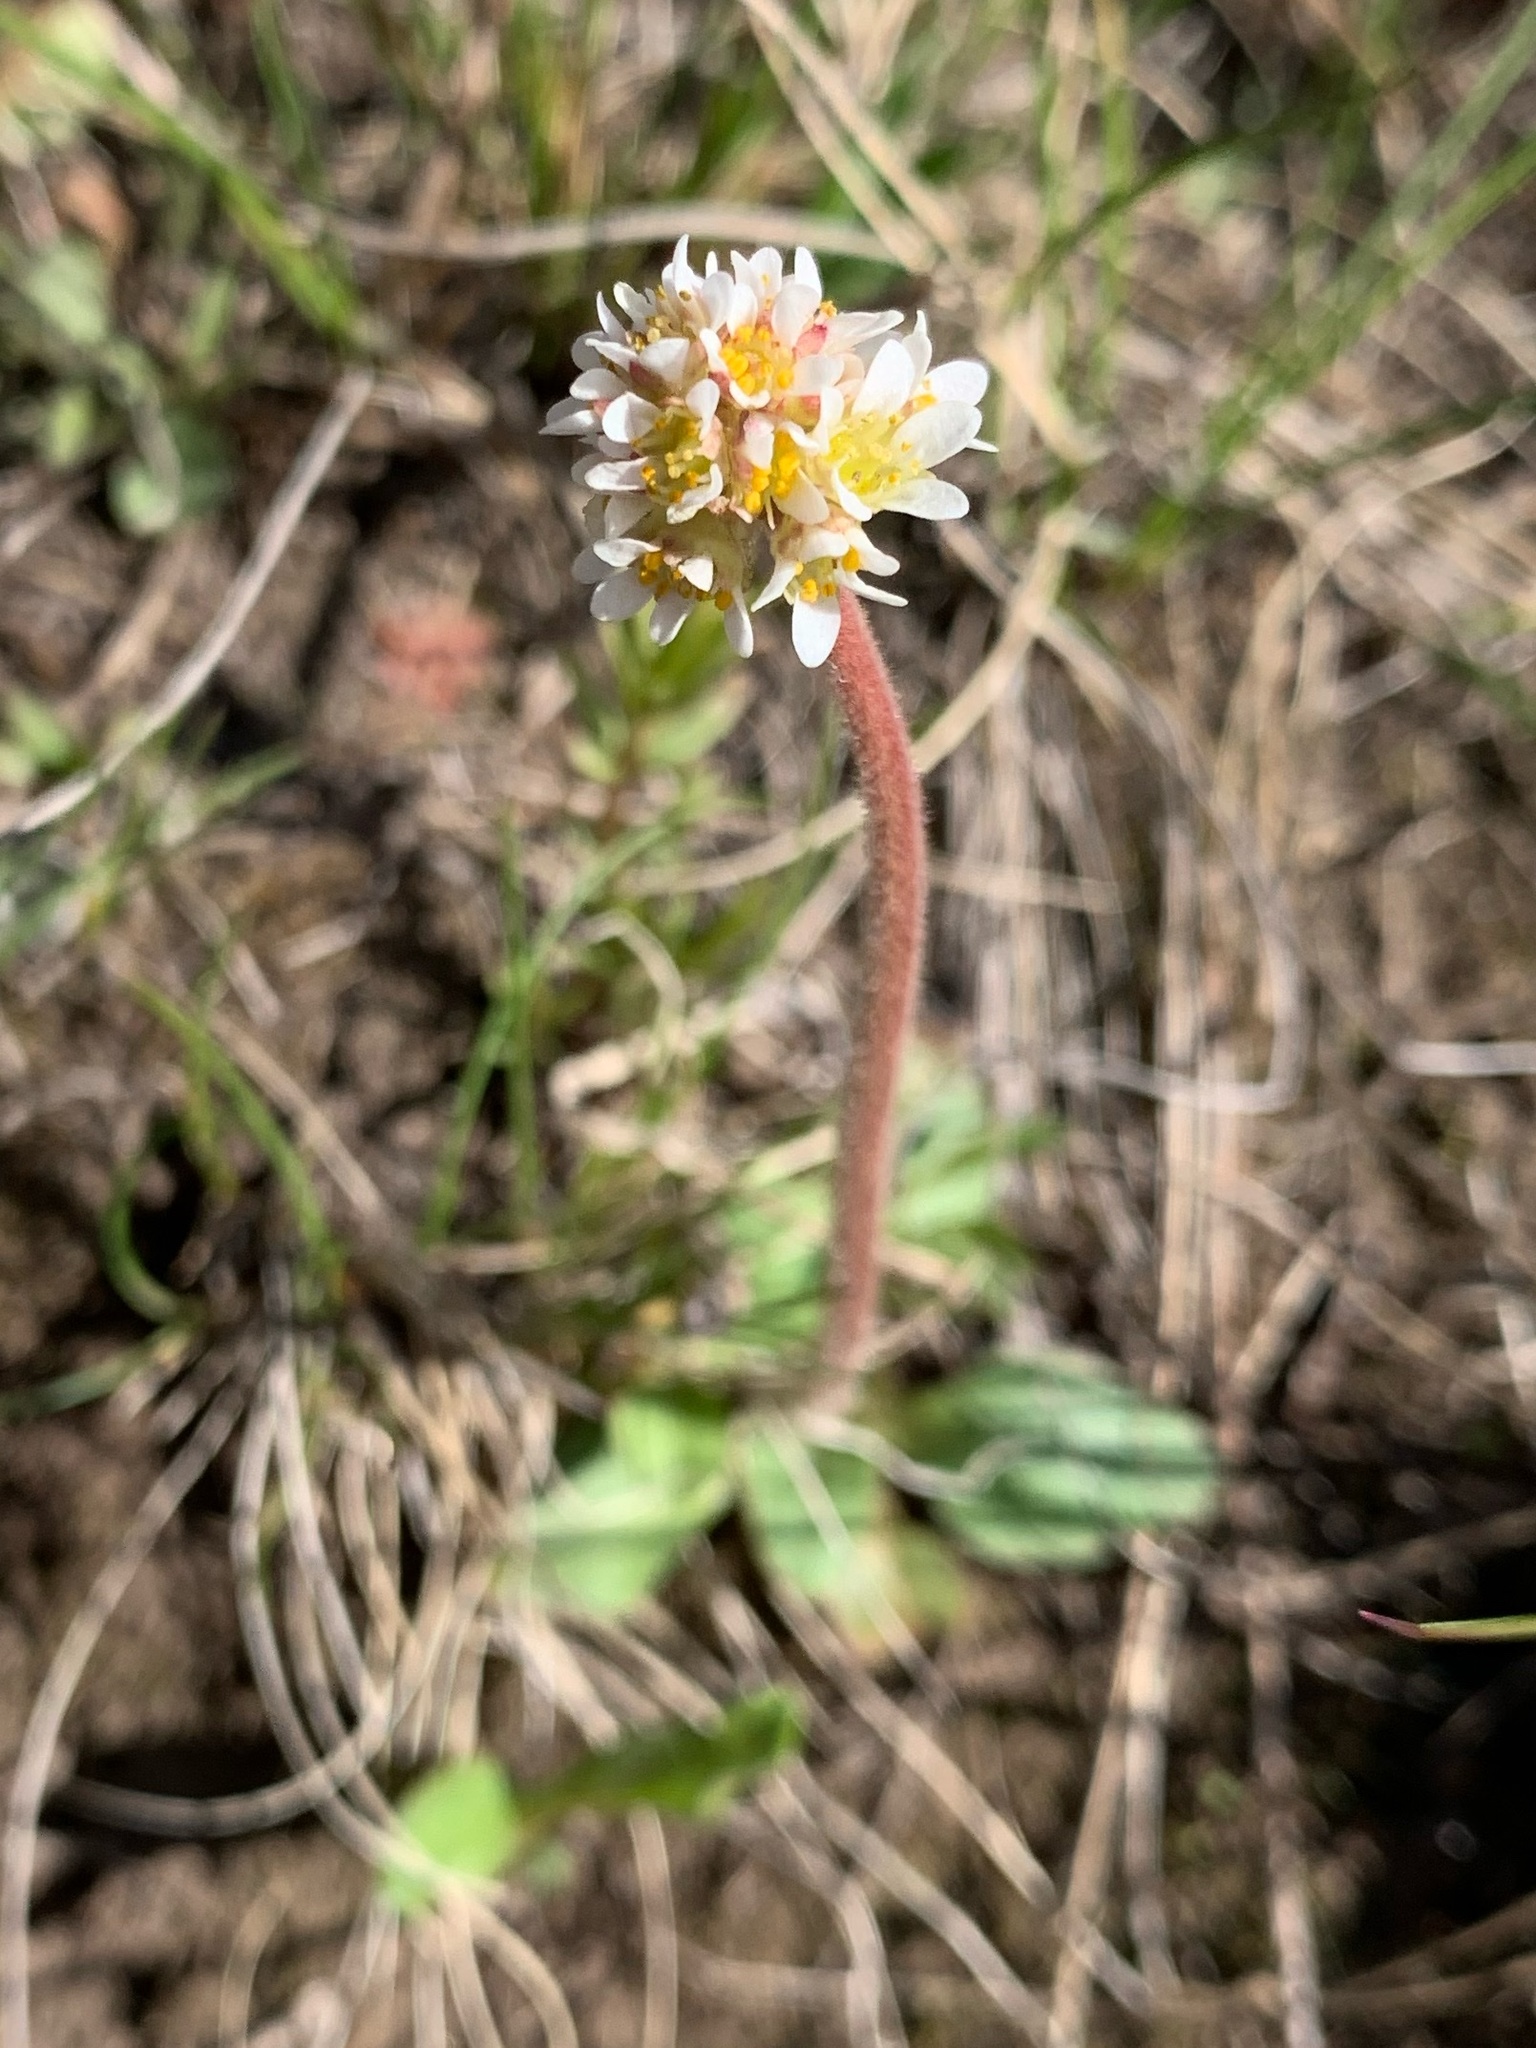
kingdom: Plantae
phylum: Tracheophyta
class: Magnoliopsida
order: Saxifragales
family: Saxifragaceae
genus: Micranthes
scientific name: Micranthes rhomboidea
